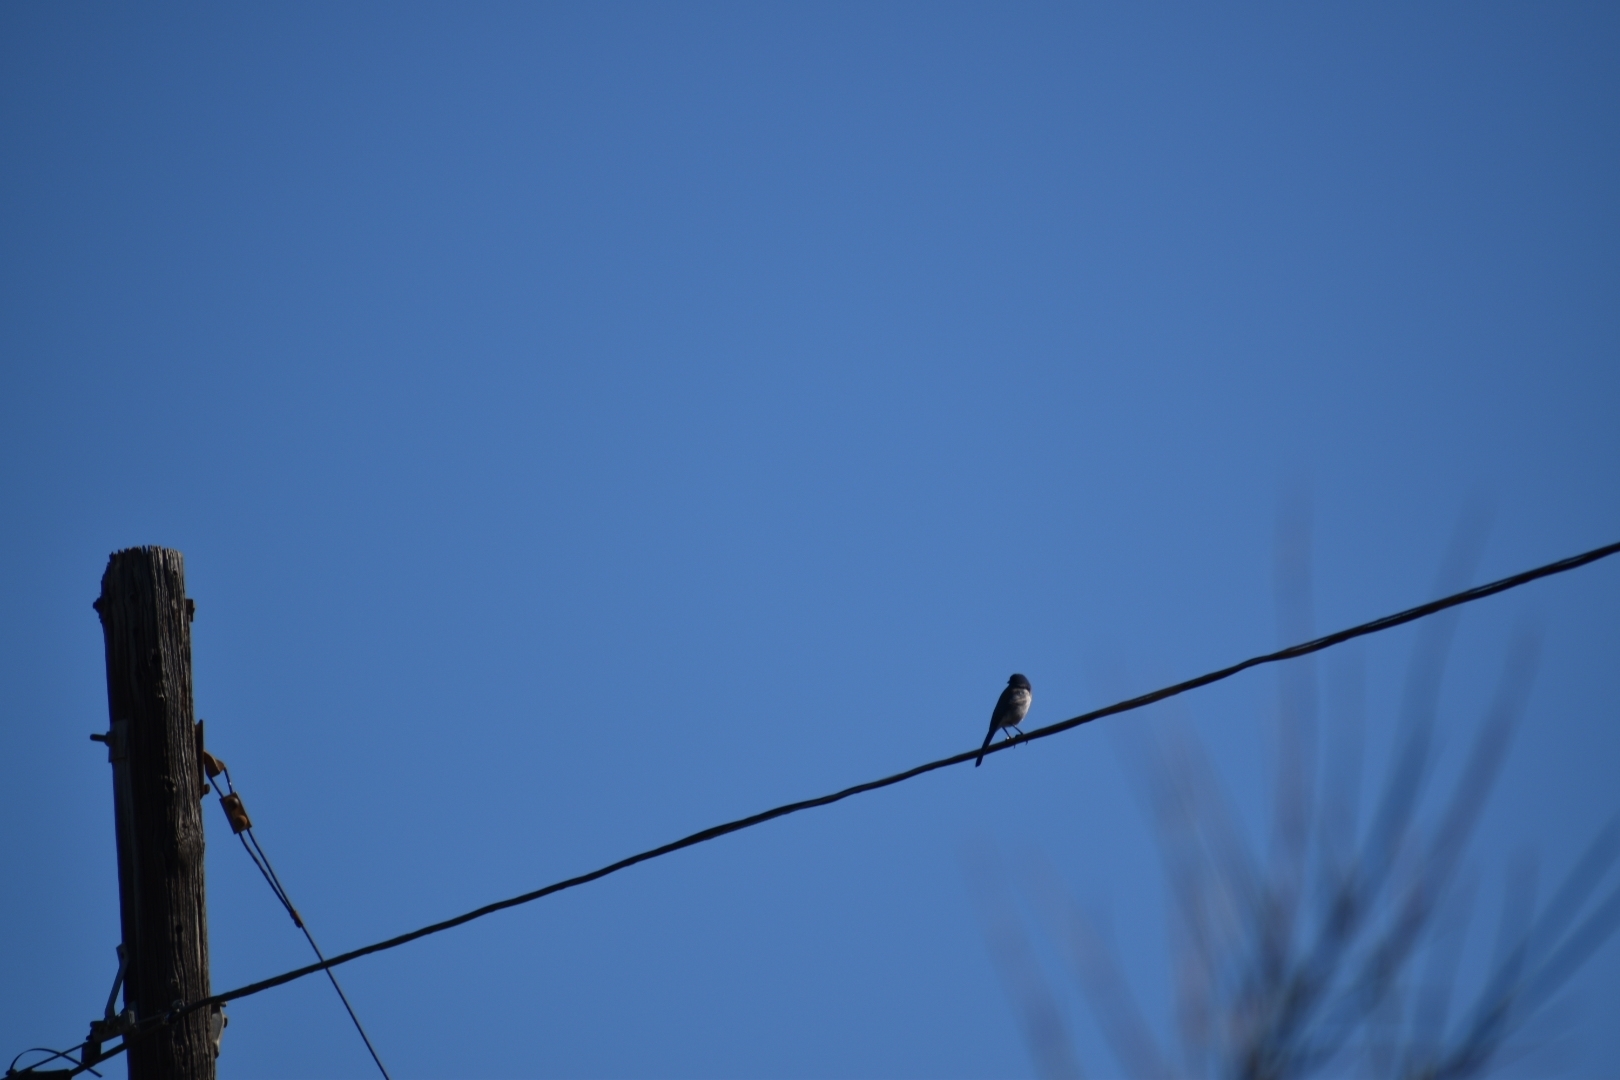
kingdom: Animalia
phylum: Chordata
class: Aves
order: Passeriformes
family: Corvidae
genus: Aphelocoma
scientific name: Aphelocoma californica
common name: California scrub-jay
